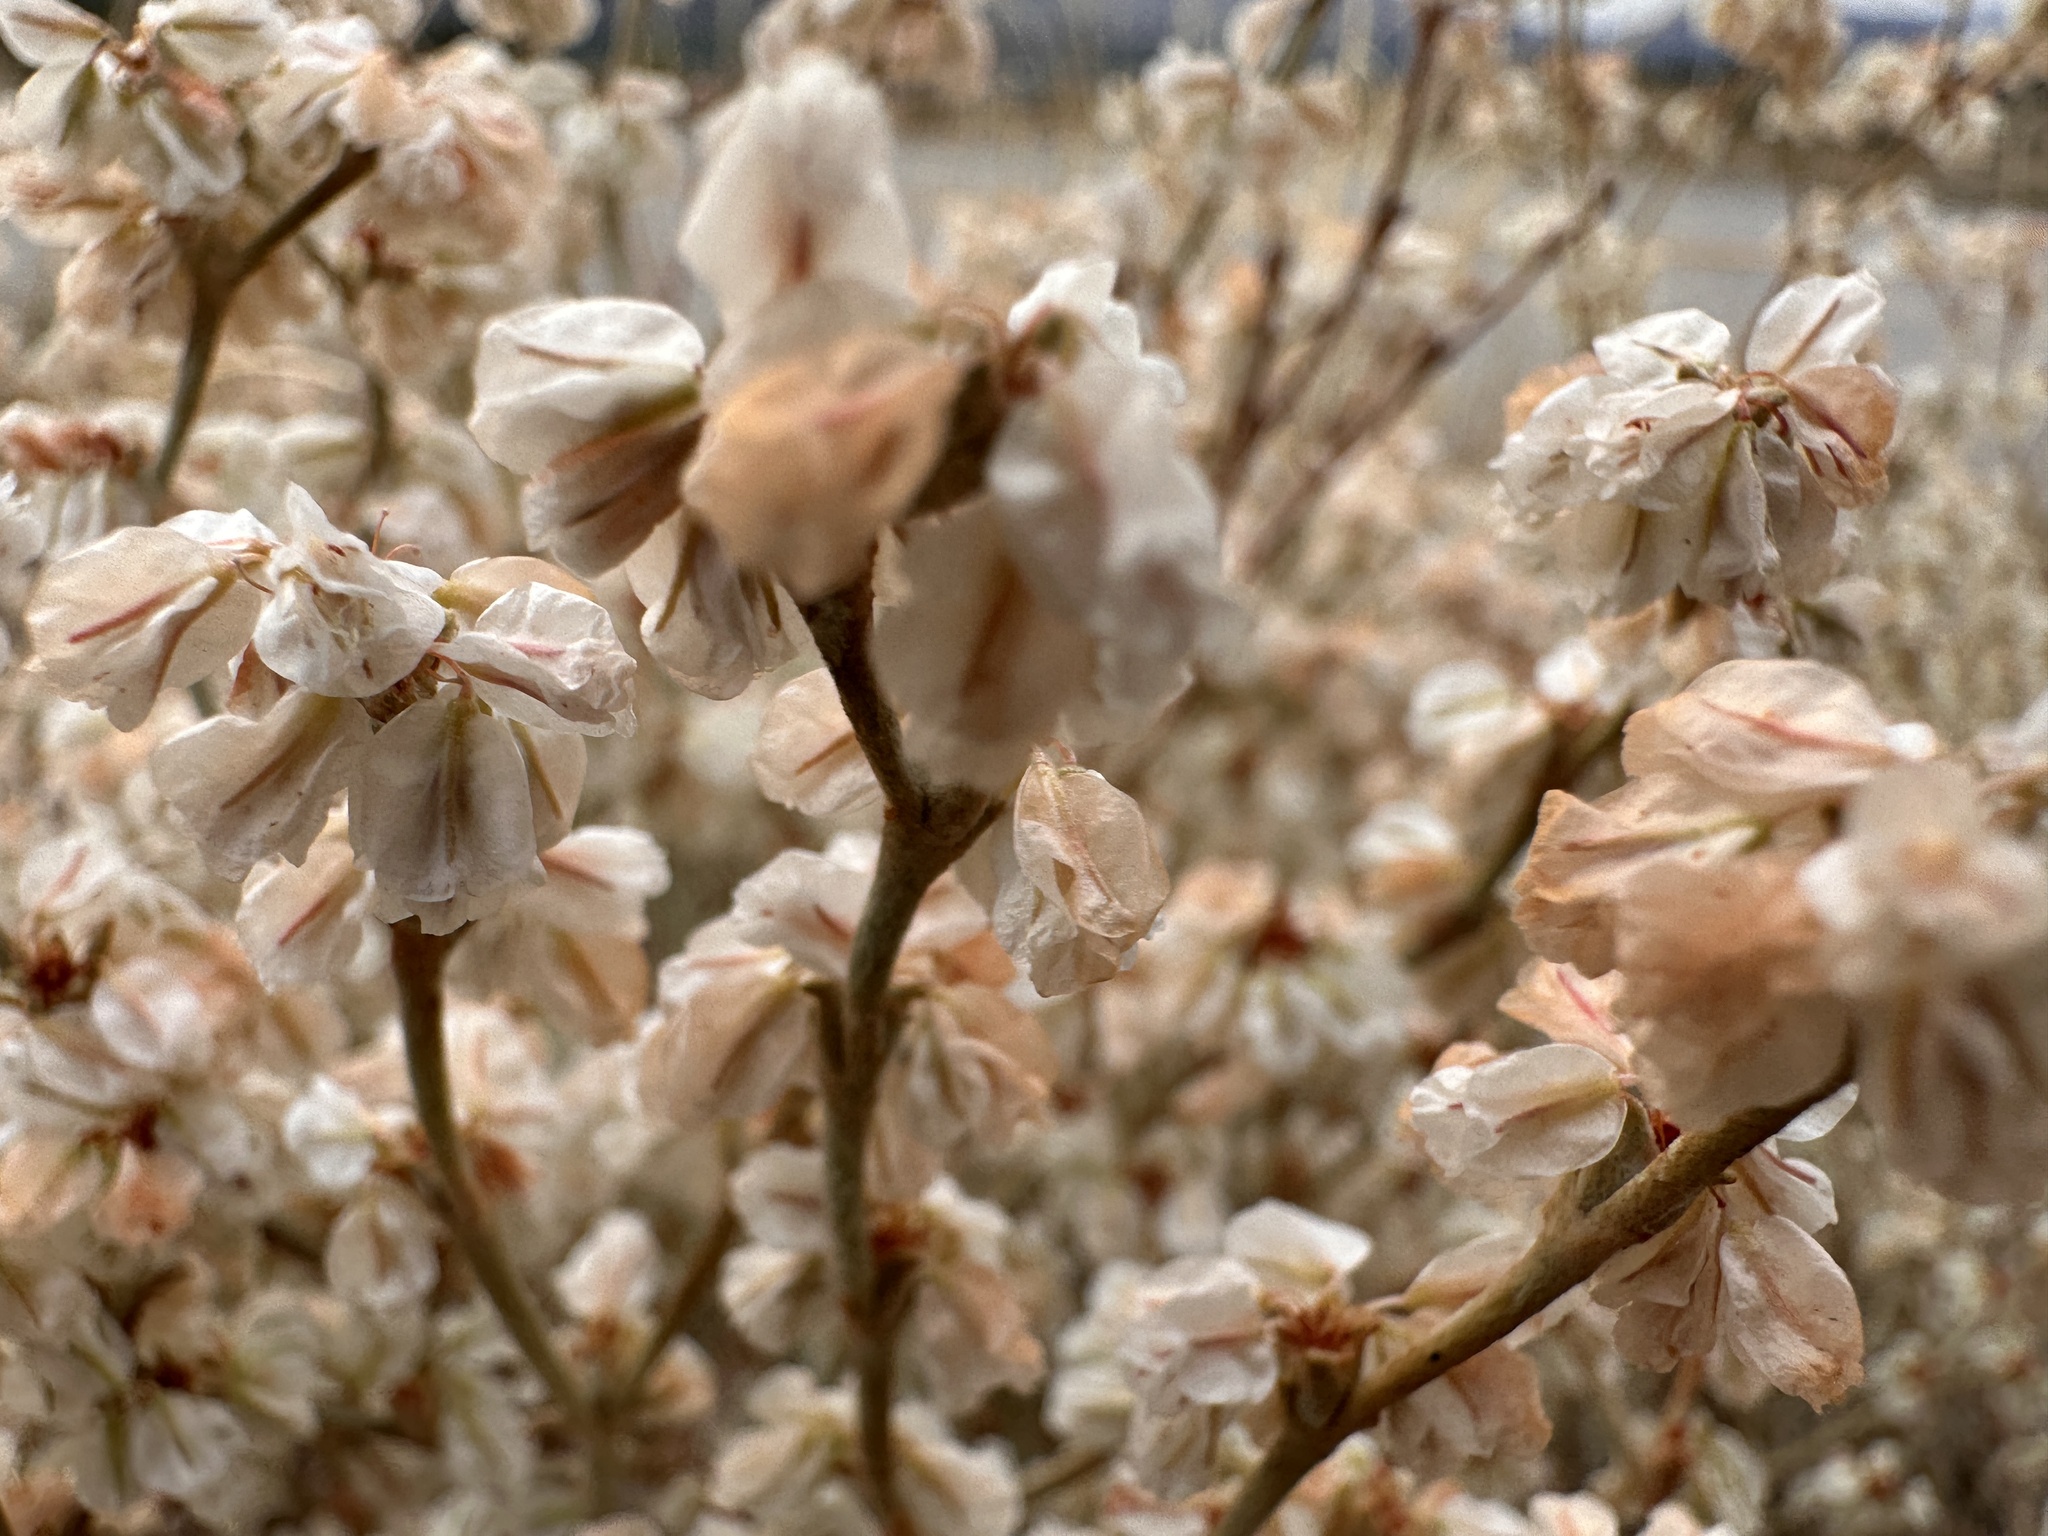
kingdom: Plantae
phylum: Tracheophyta
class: Magnoliopsida
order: Caryophyllales
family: Polygonaceae
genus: Eriogonum
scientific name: Eriogonum niveum
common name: Snow wild buckwheat
